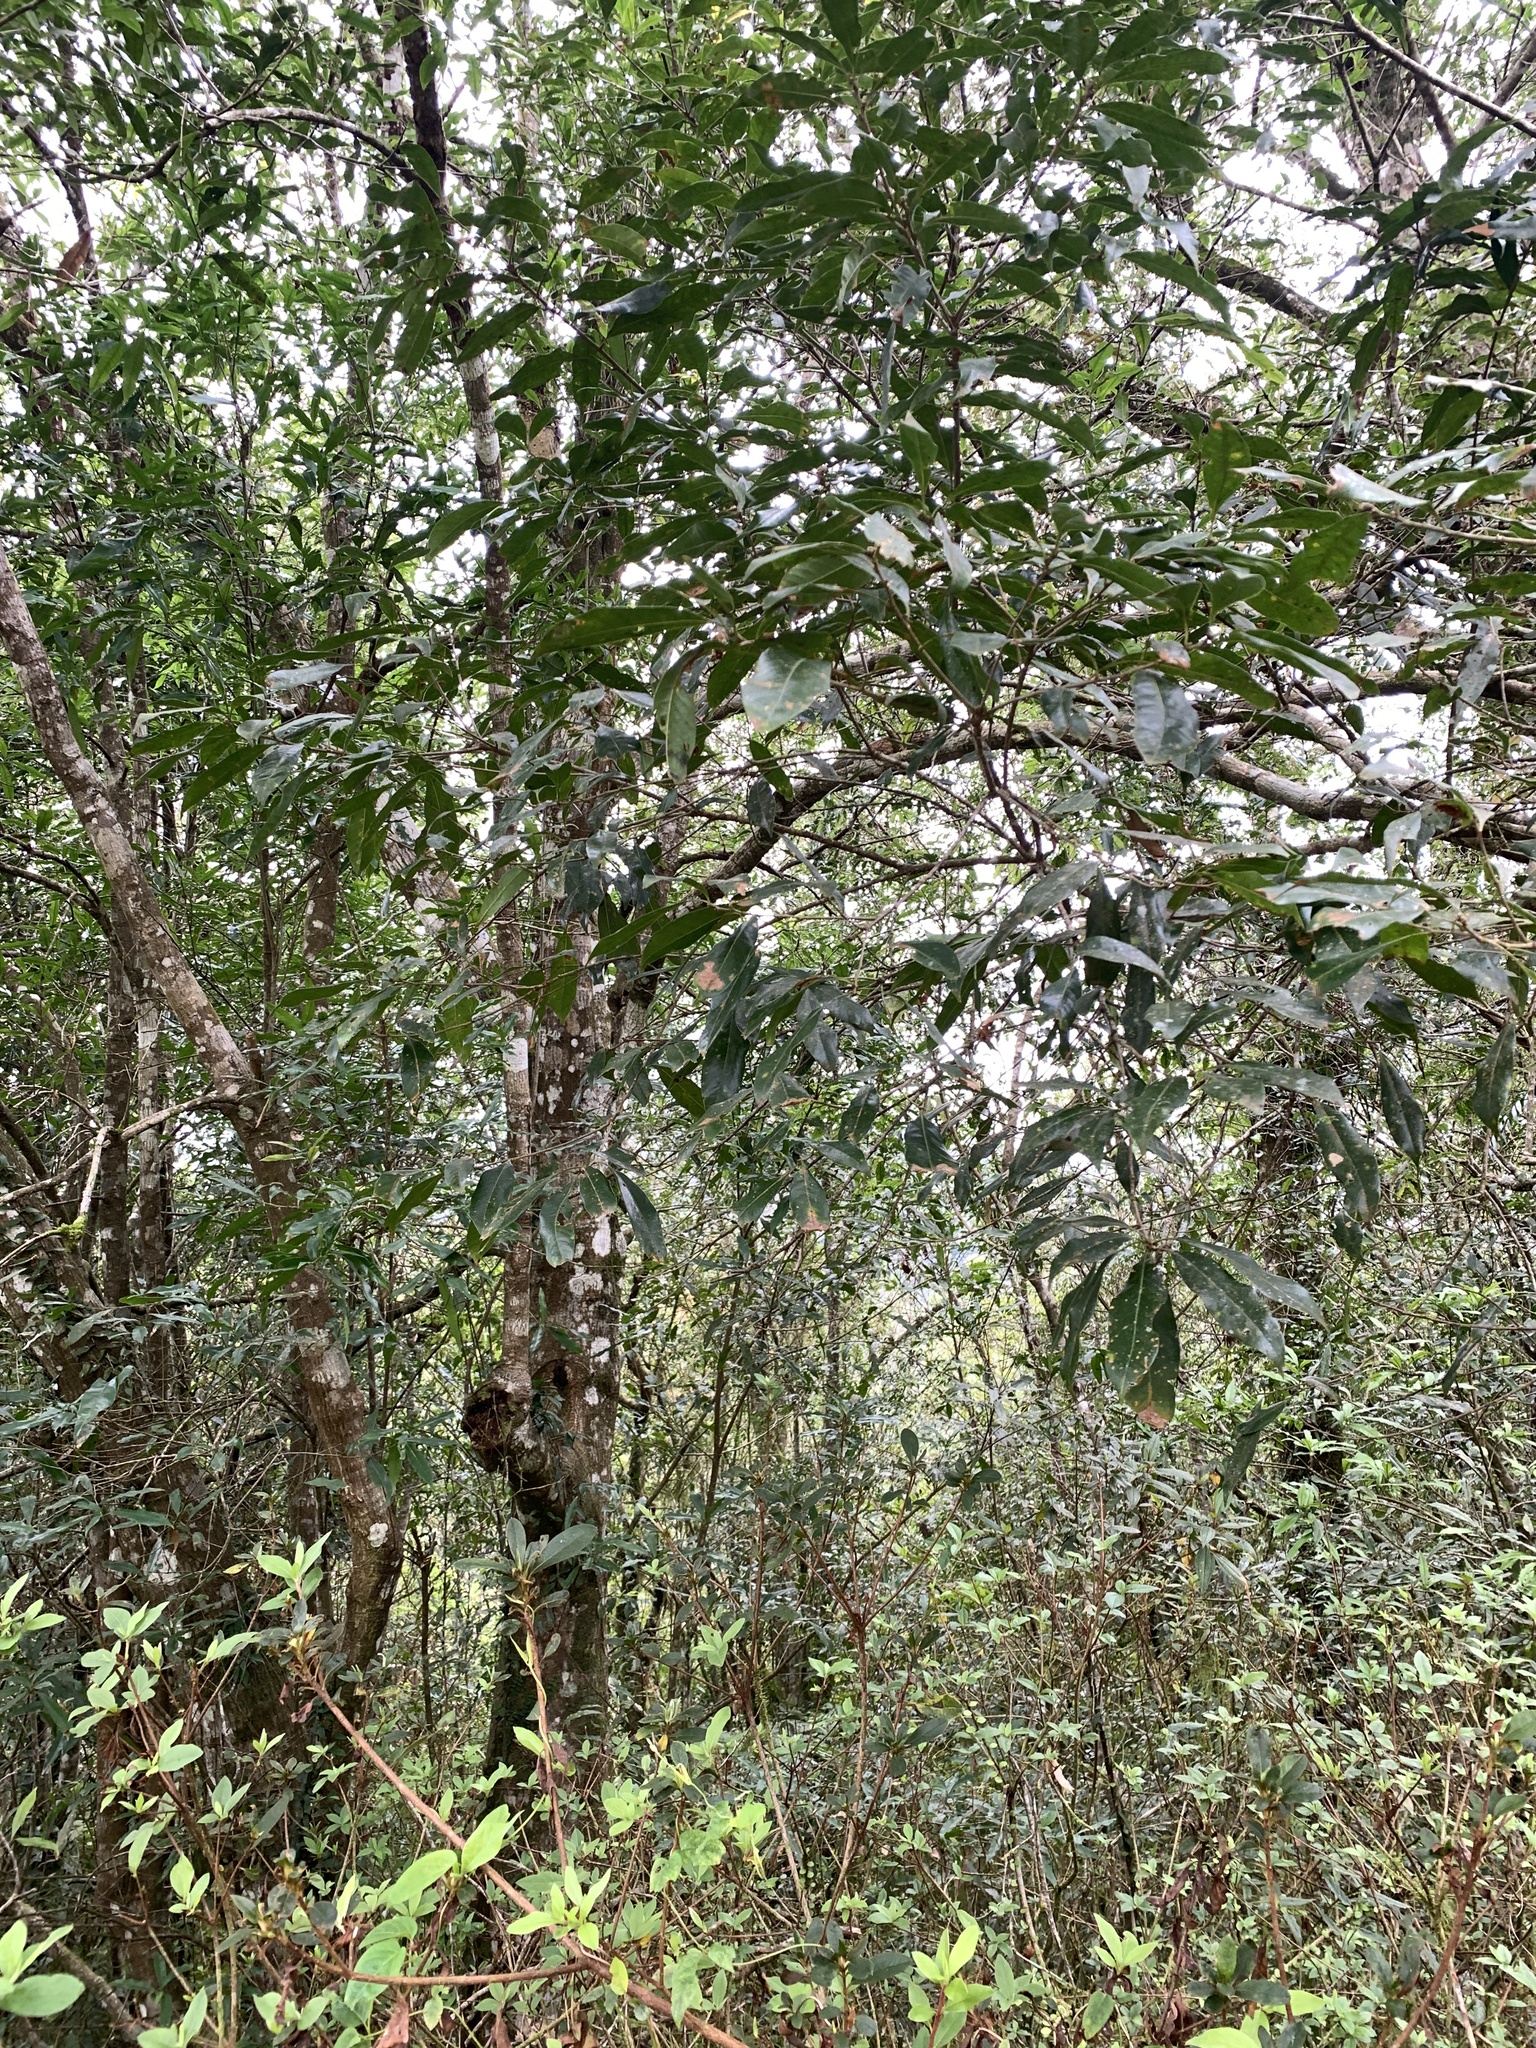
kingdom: Plantae
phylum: Tracheophyta
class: Magnoliopsida
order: Fagales
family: Fagaceae
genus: Lithocarpus
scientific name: Lithocarpus hancei
